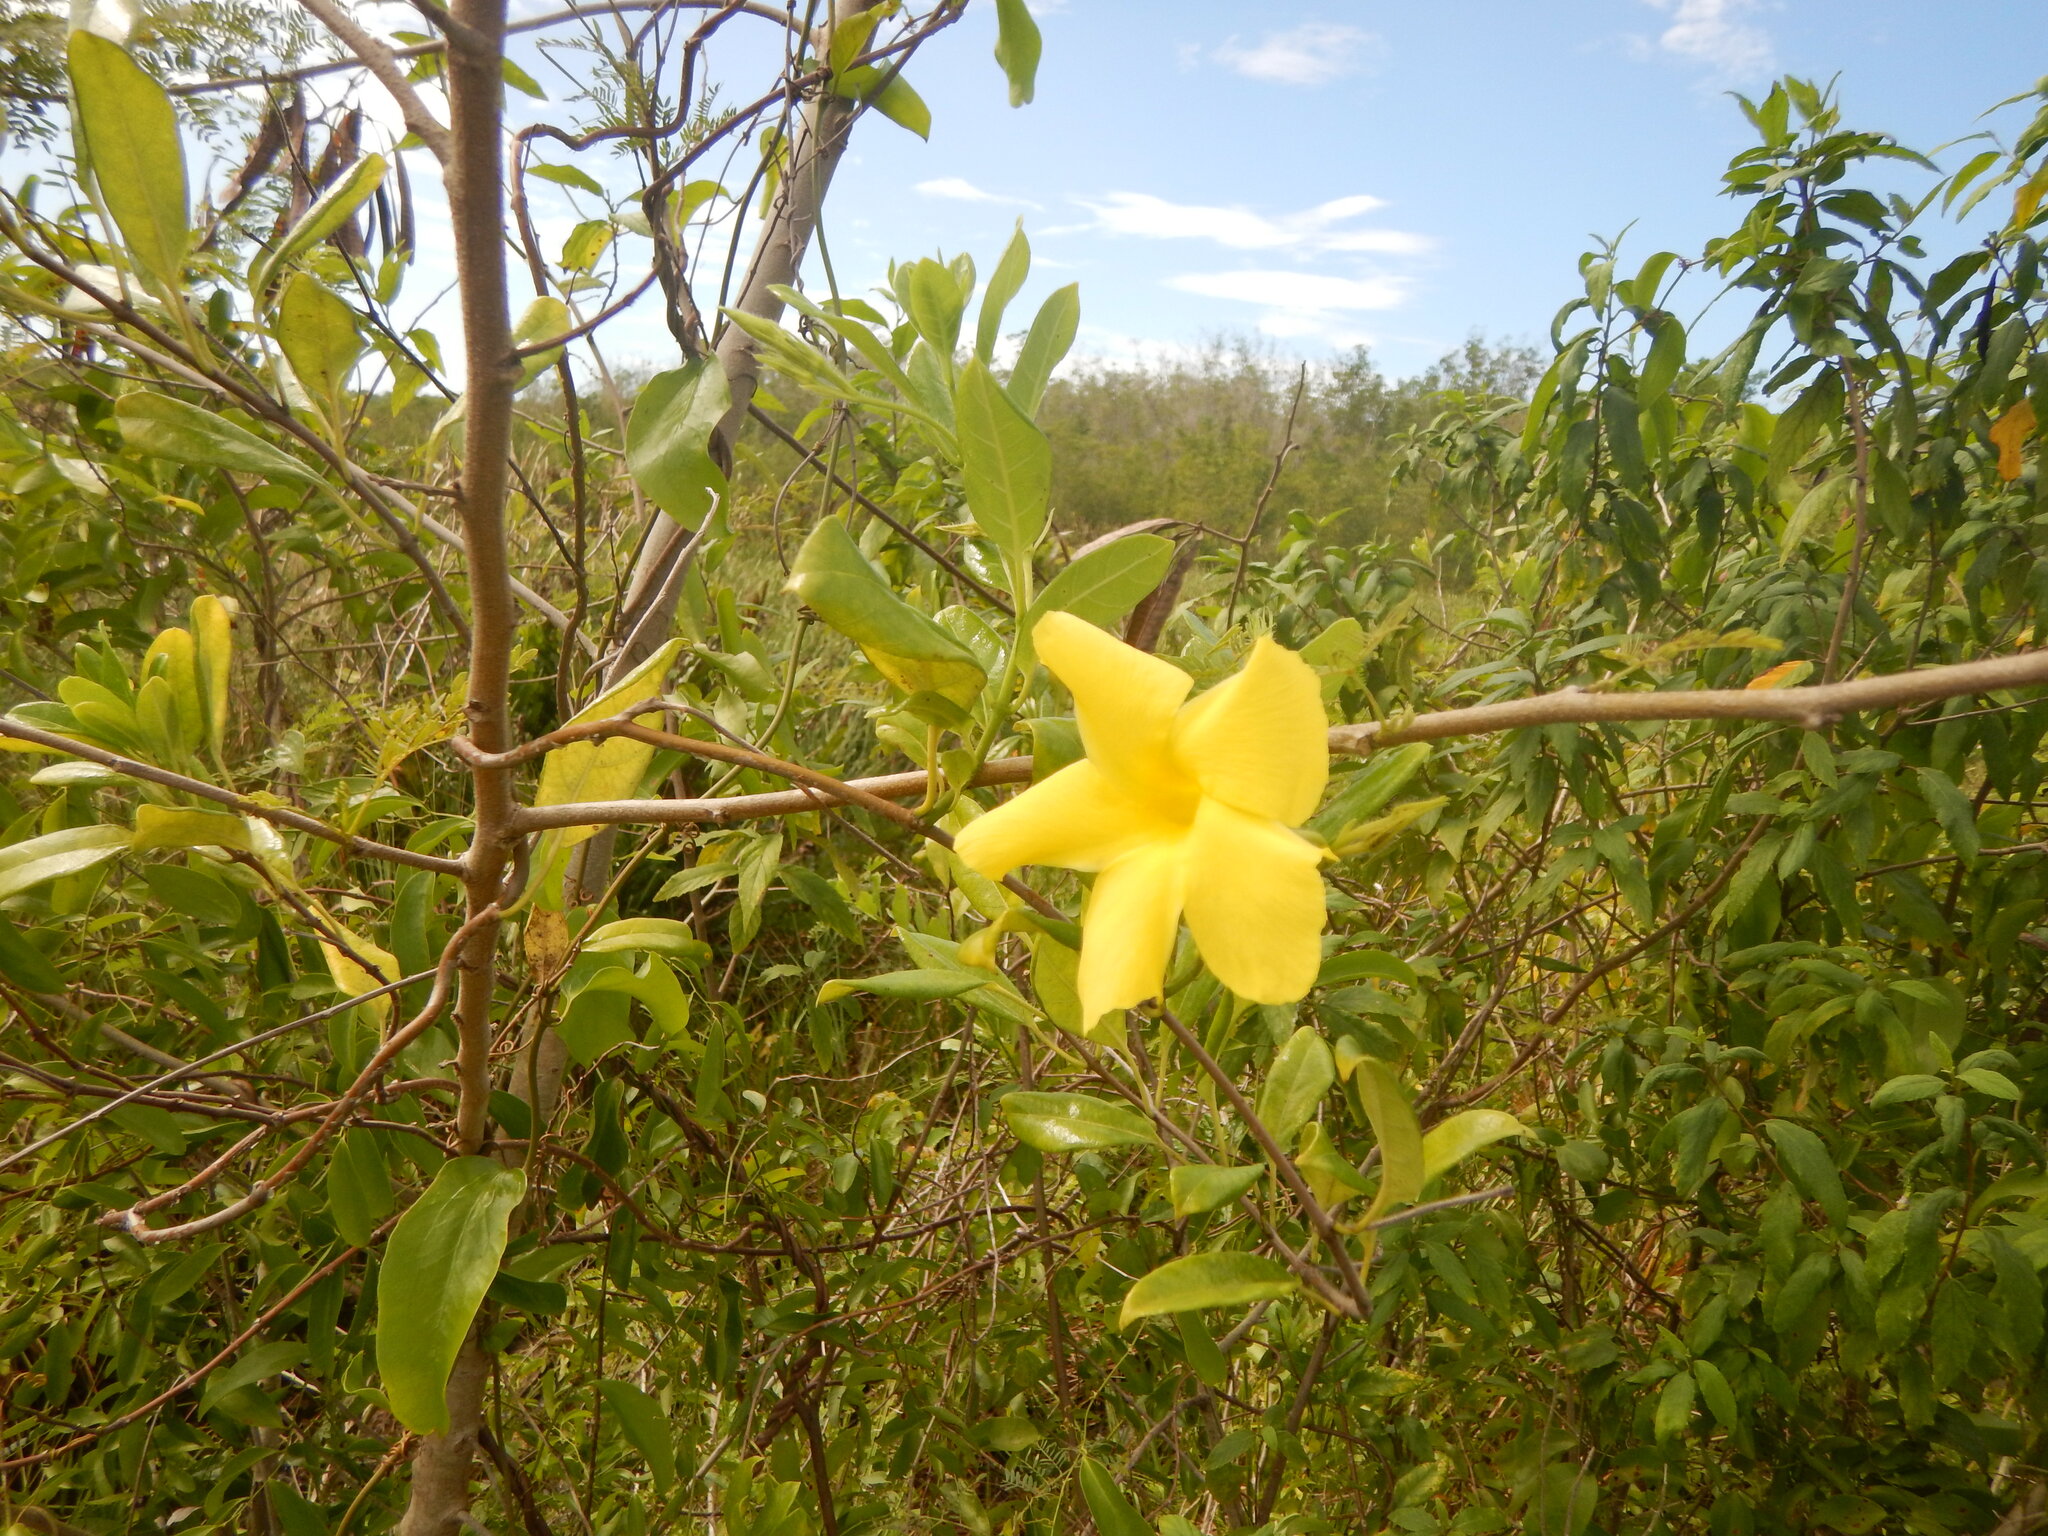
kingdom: Plantae
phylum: Tracheophyta
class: Magnoliopsida
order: Gentianales
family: Apocynaceae
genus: Pentalinon
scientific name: Pentalinon luteum
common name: Licebush
